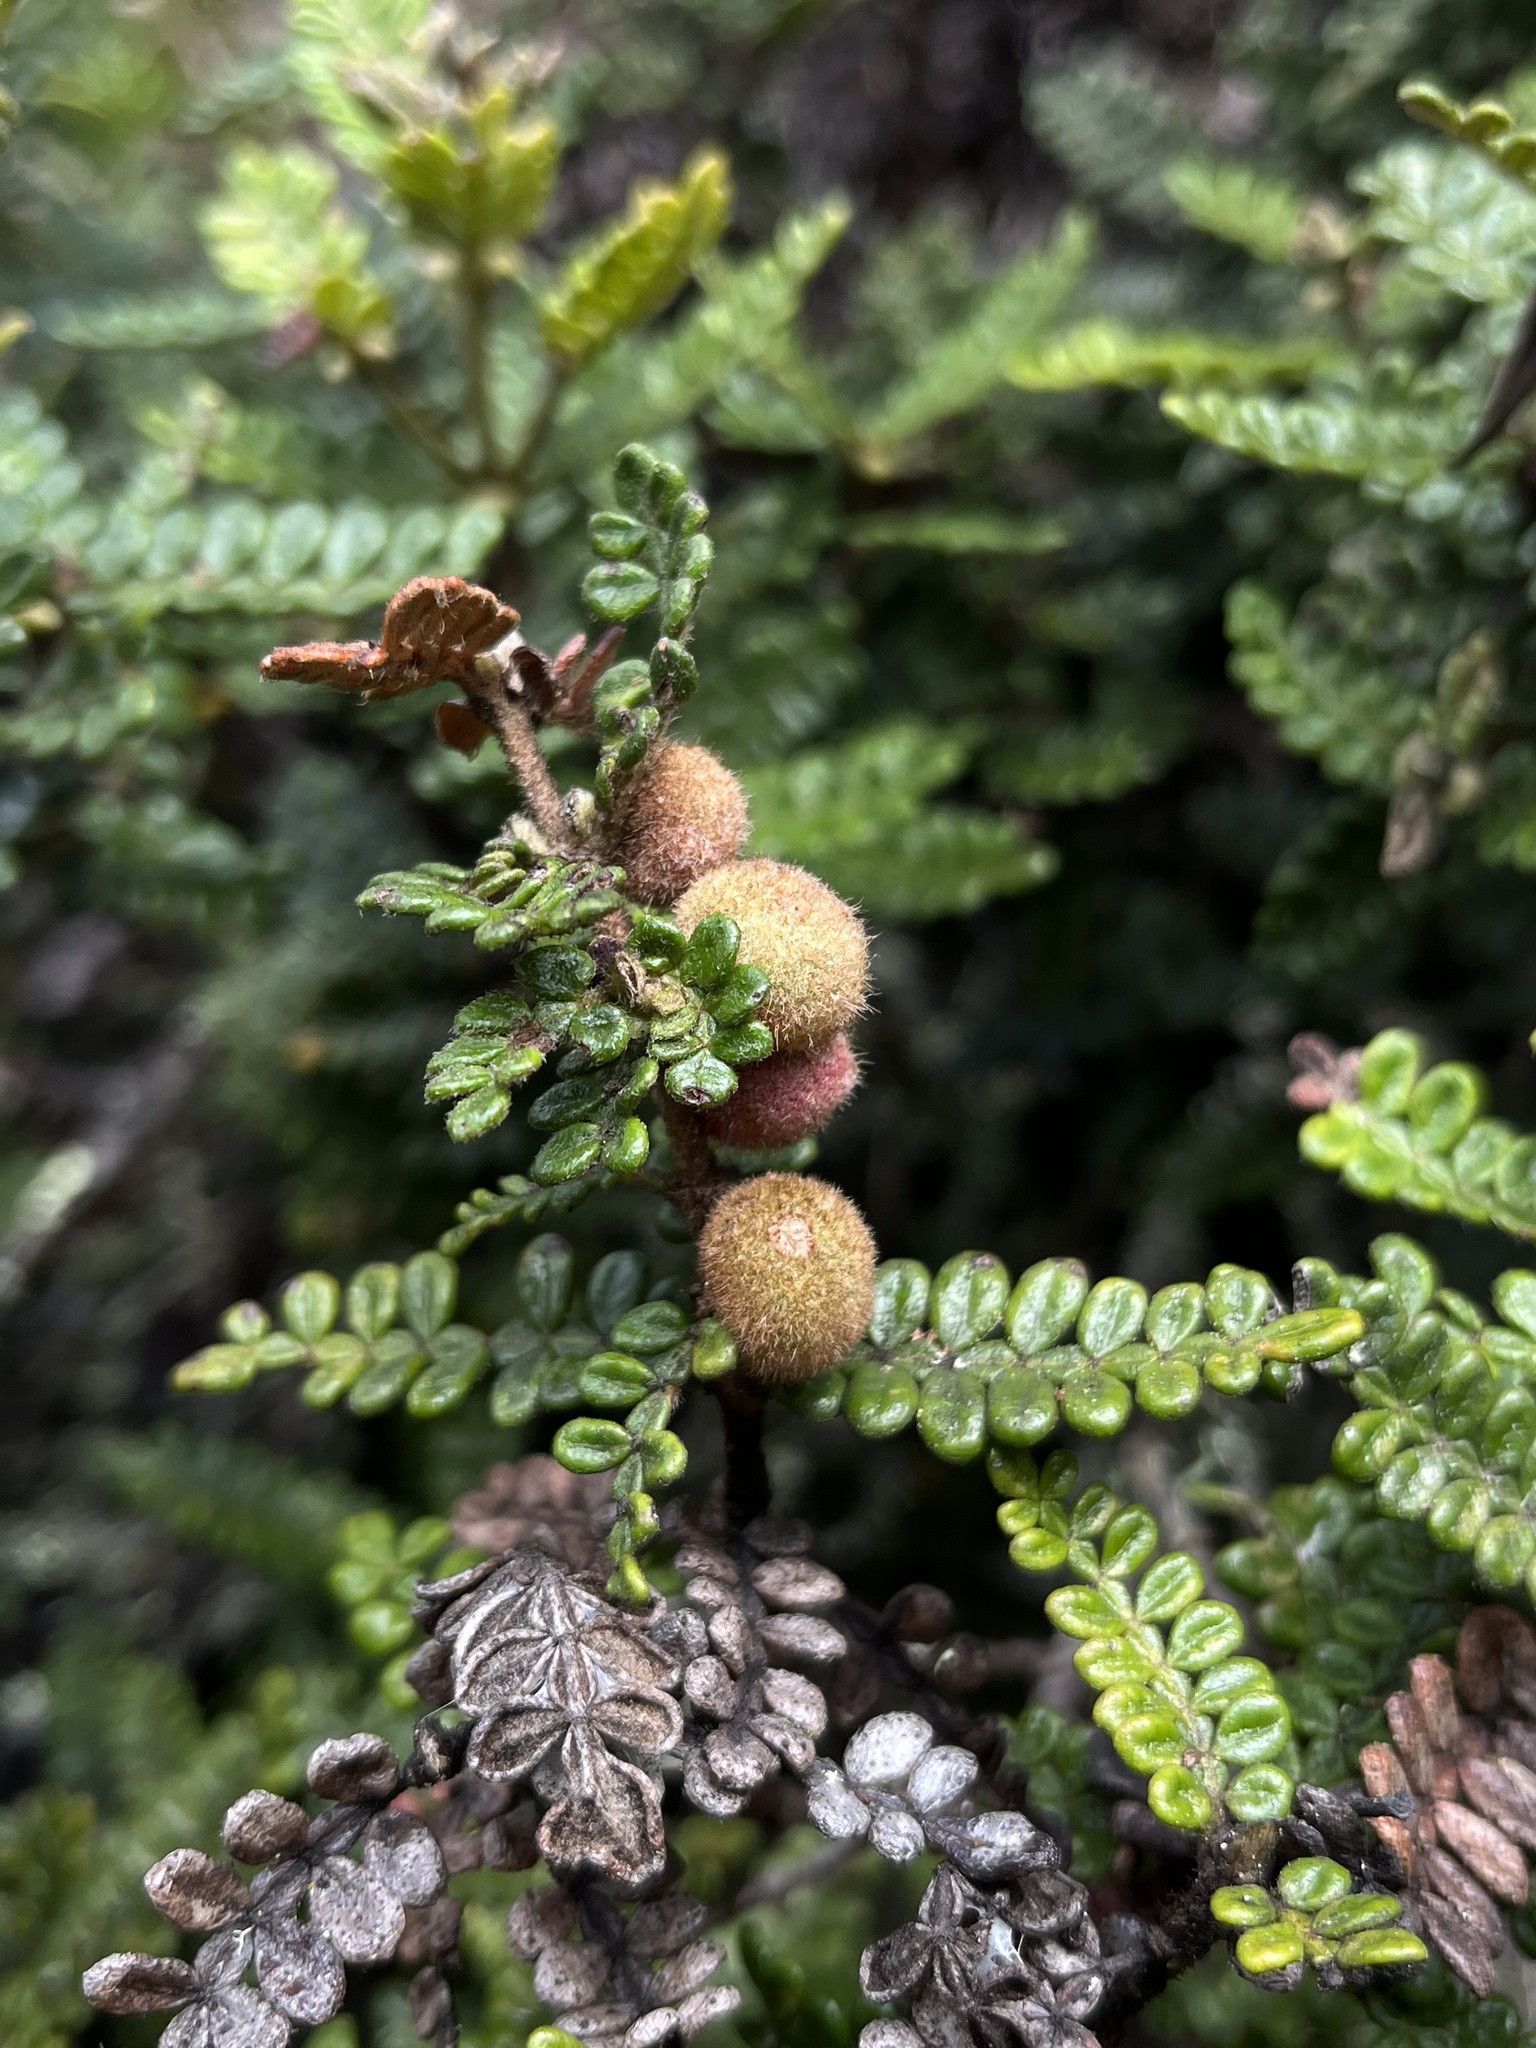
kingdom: Plantae
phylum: Tracheophyta
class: Magnoliopsida
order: Oxalidales
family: Cunoniaceae
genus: Weinmannia
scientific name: Weinmannia tomentosa
